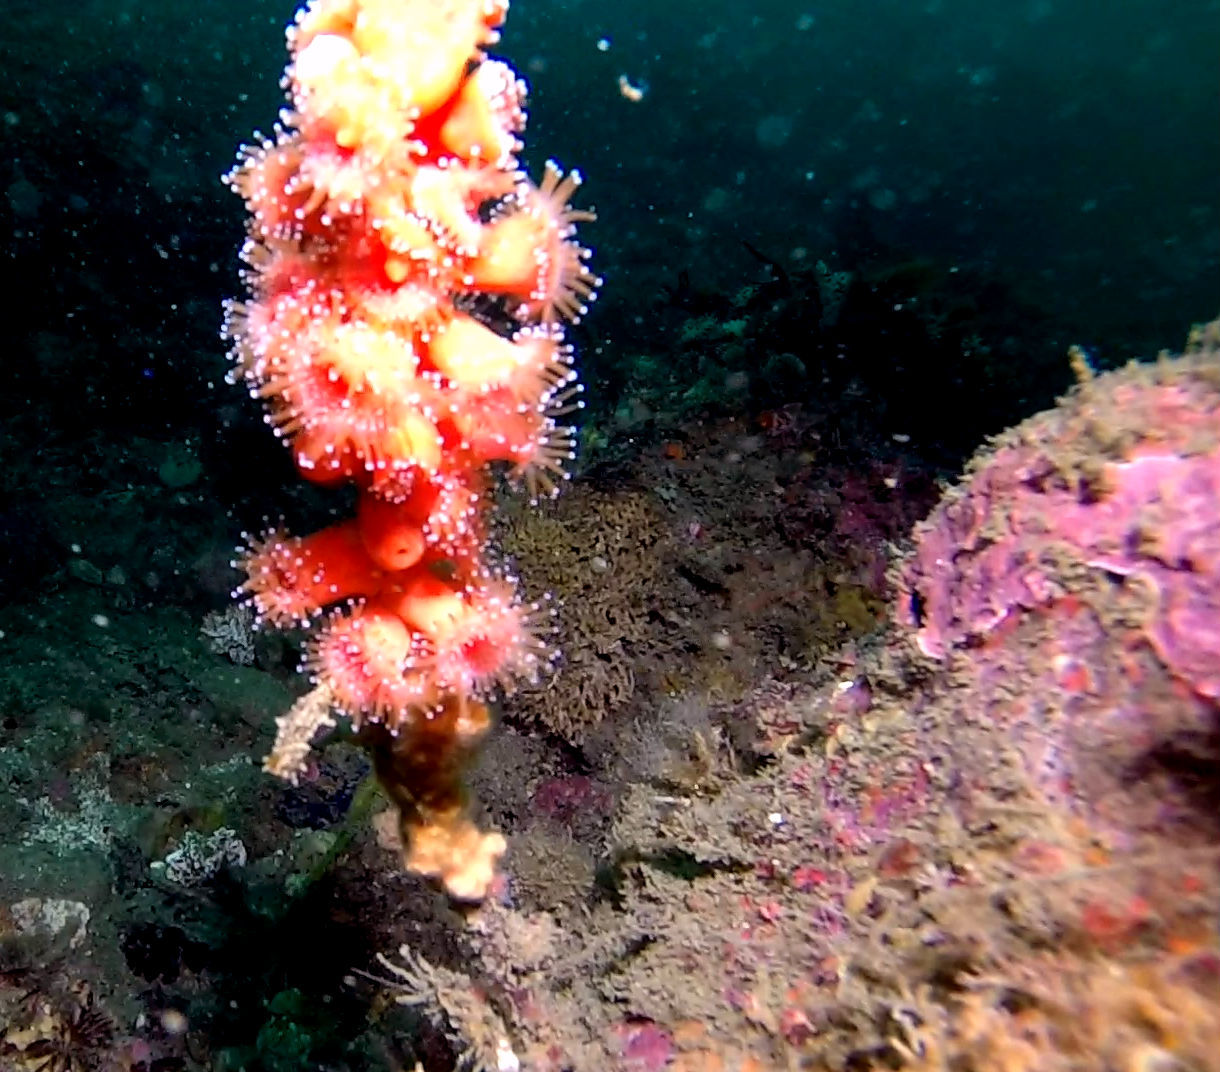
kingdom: Animalia
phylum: Cnidaria
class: Anthozoa
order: Corallimorpharia
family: Corallimorphidae
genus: Corynactis
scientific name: Corynactis californica
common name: Strawberry corallimorpharian
